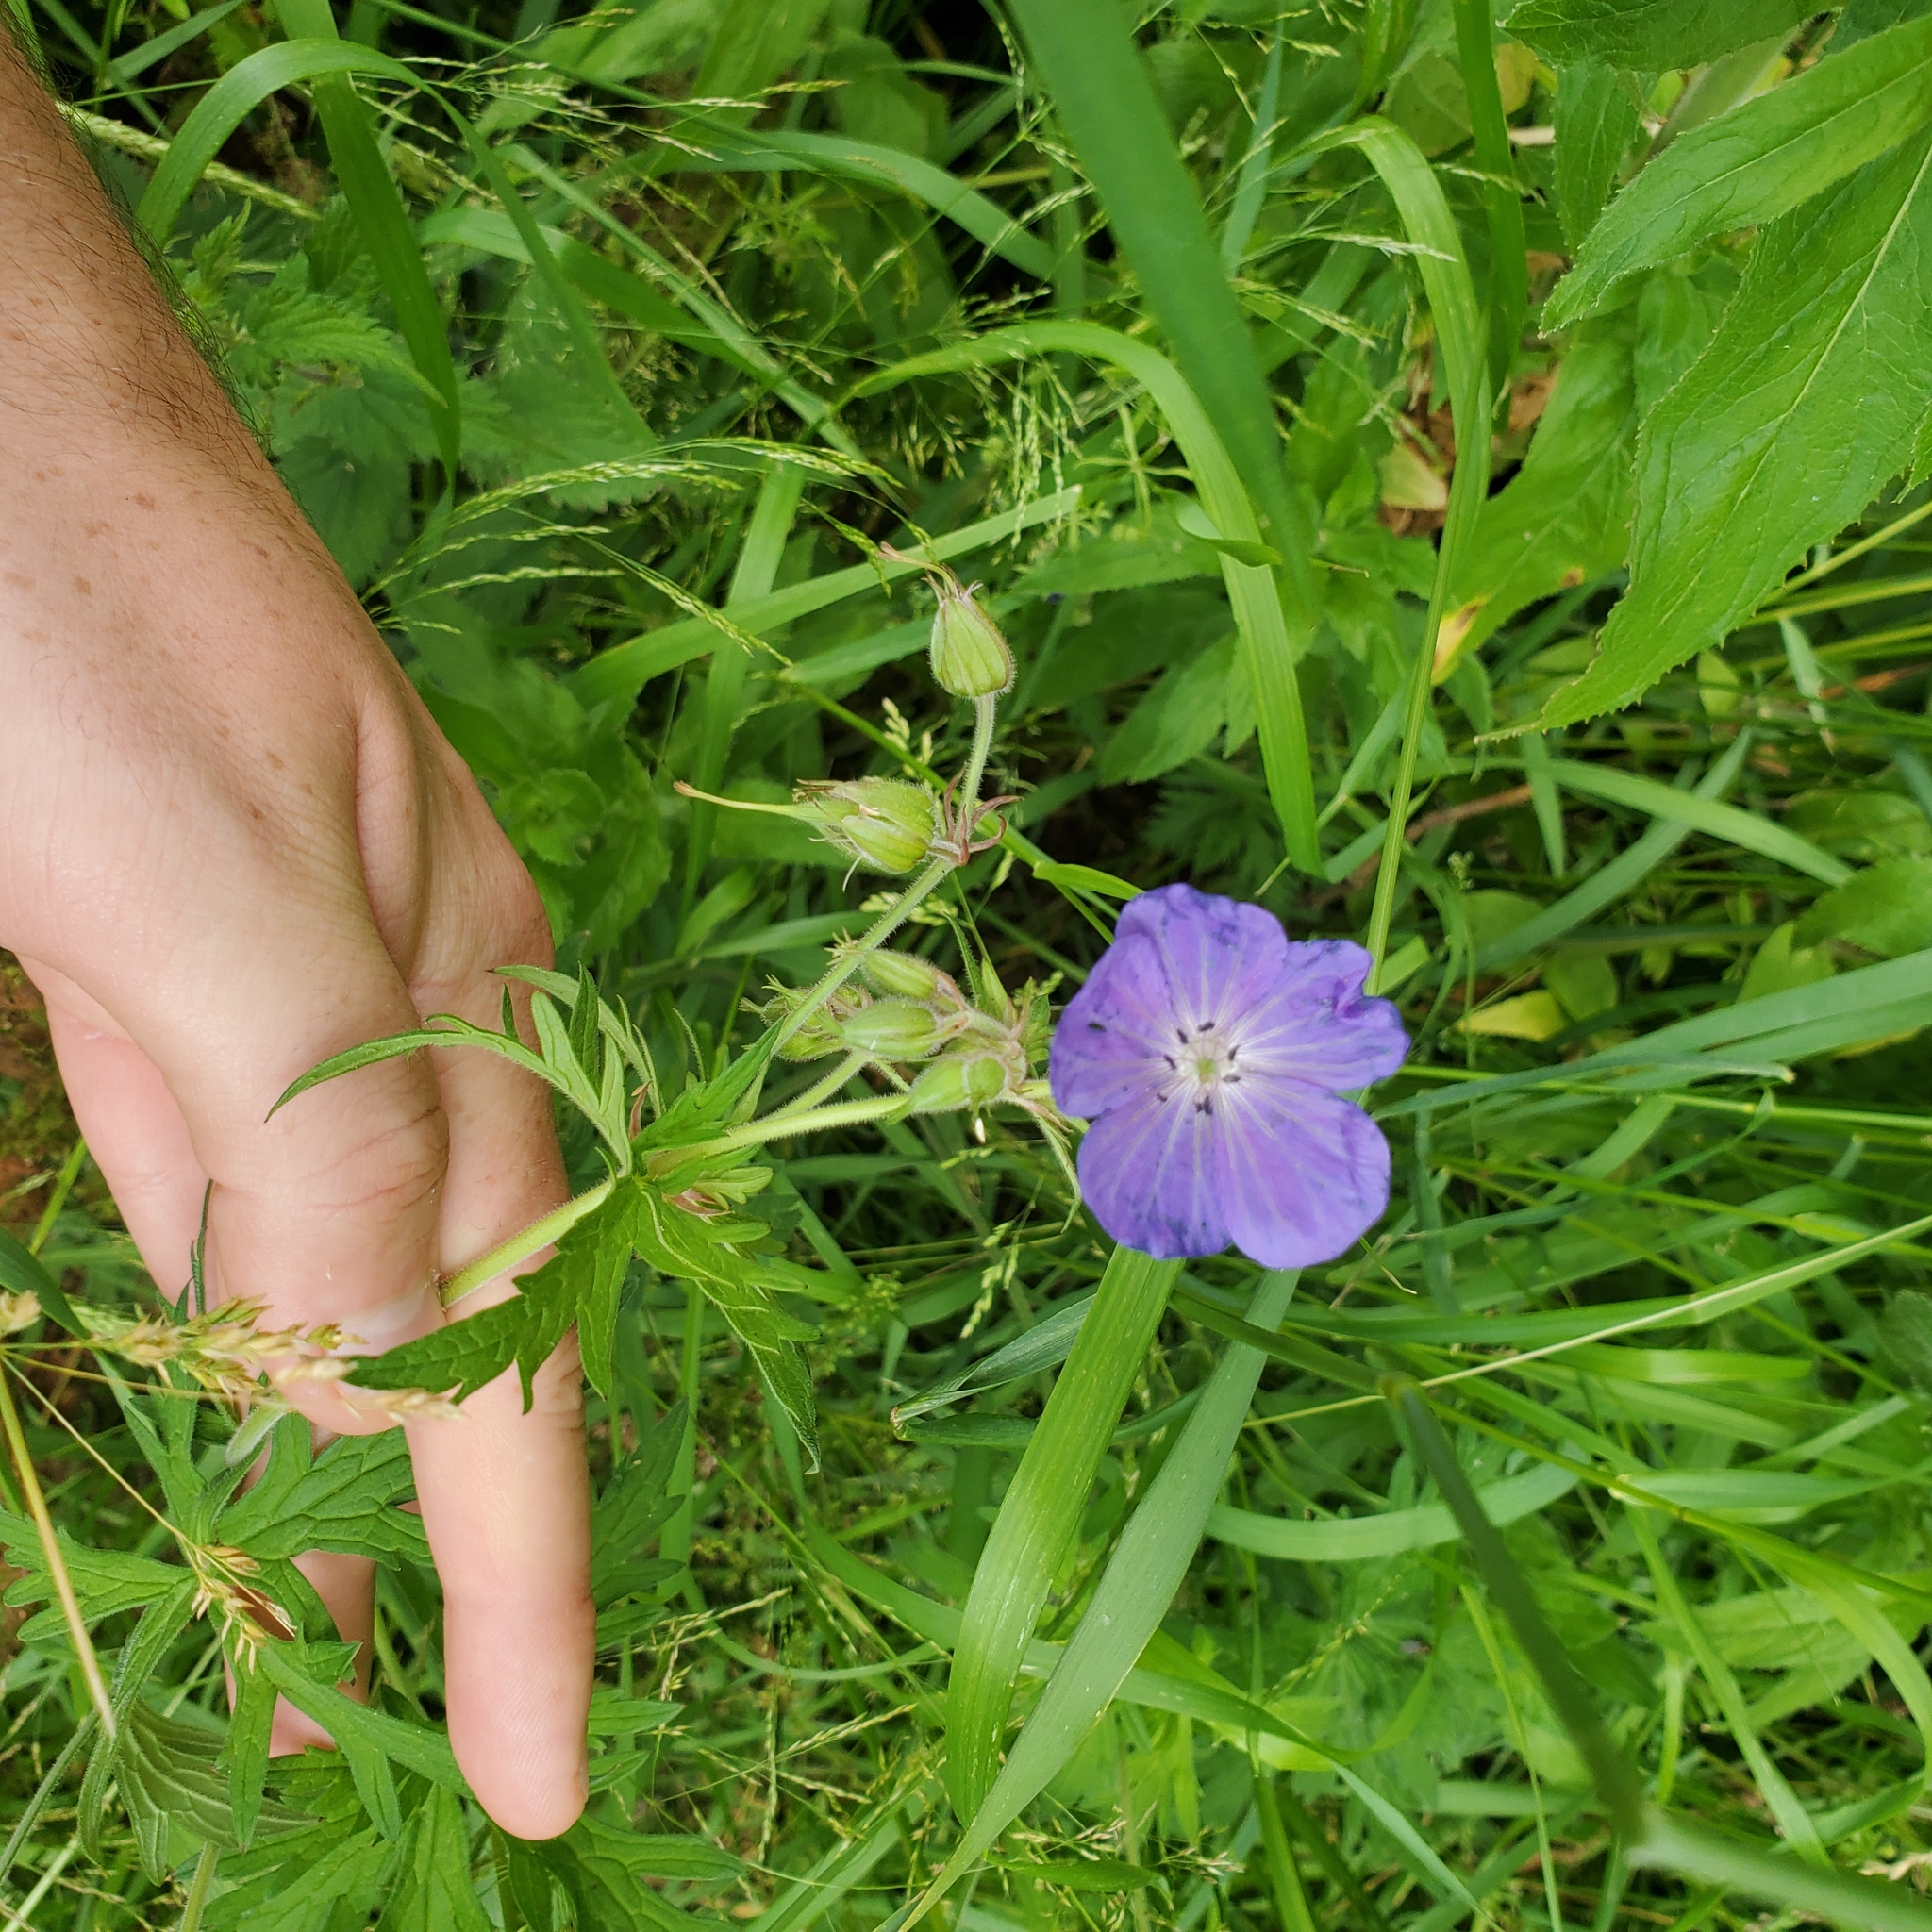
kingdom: Plantae
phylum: Tracheophyta
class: Magnoliopsida
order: Geraniales
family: Geraniaceae
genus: Geranium
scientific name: Geranium pratense
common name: Meadow crane's-bill
